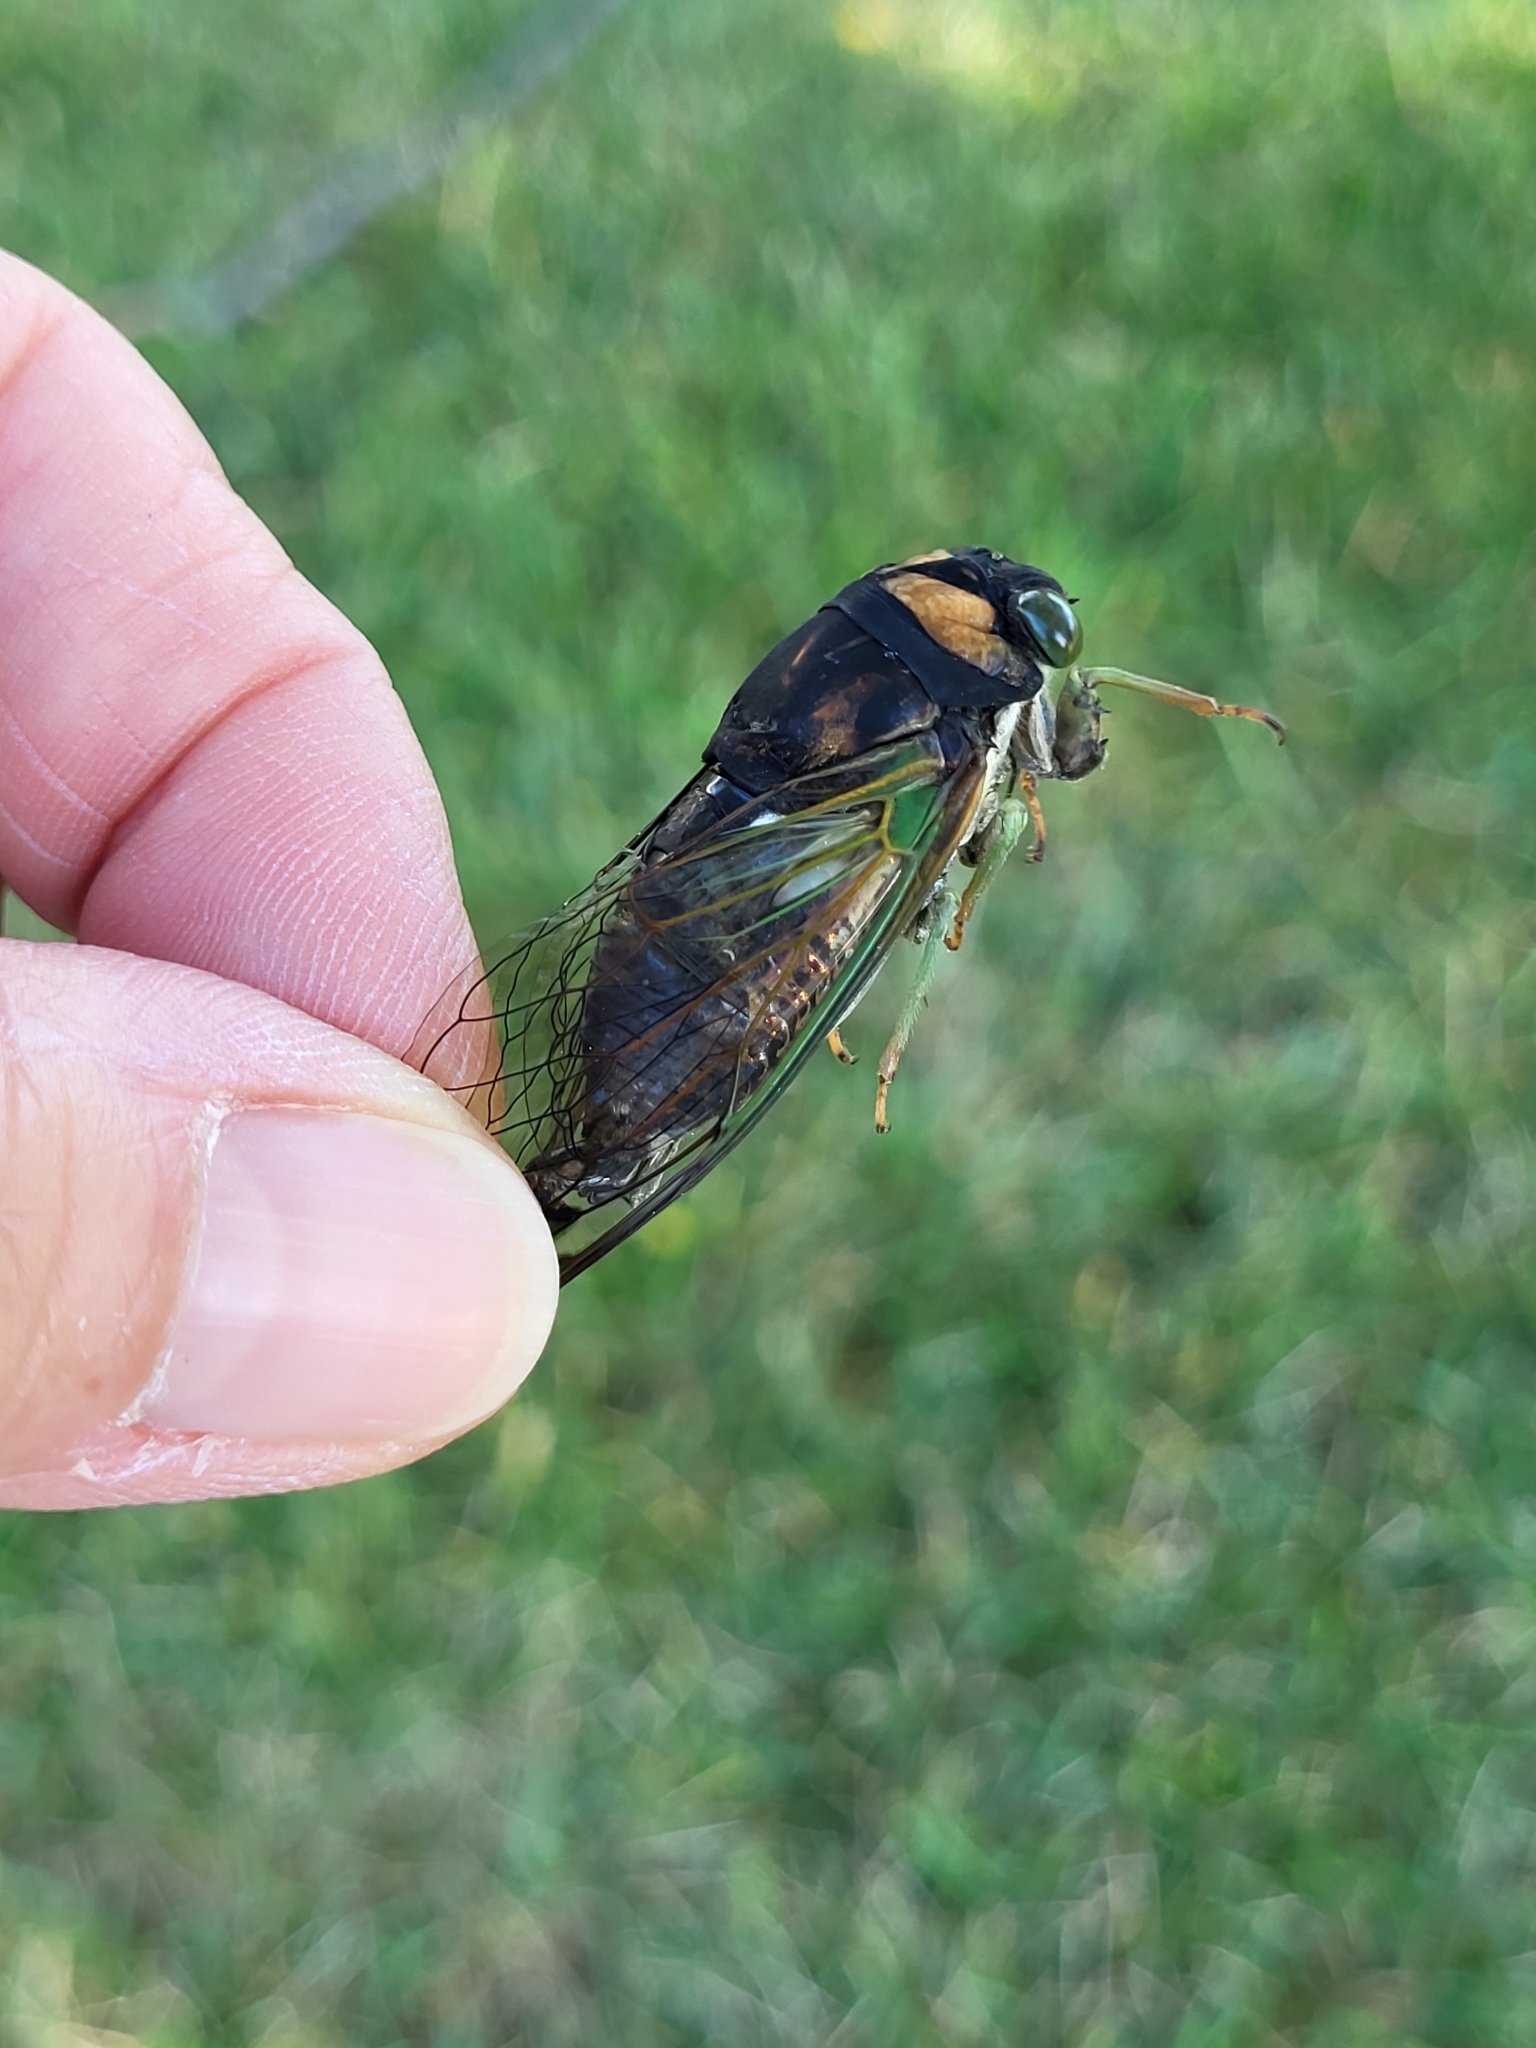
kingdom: Animalia
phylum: Arthropoda
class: Insecta
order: Hemiptera
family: Cicadidae
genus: Neotibicen
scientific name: Neotibicen tibicen
